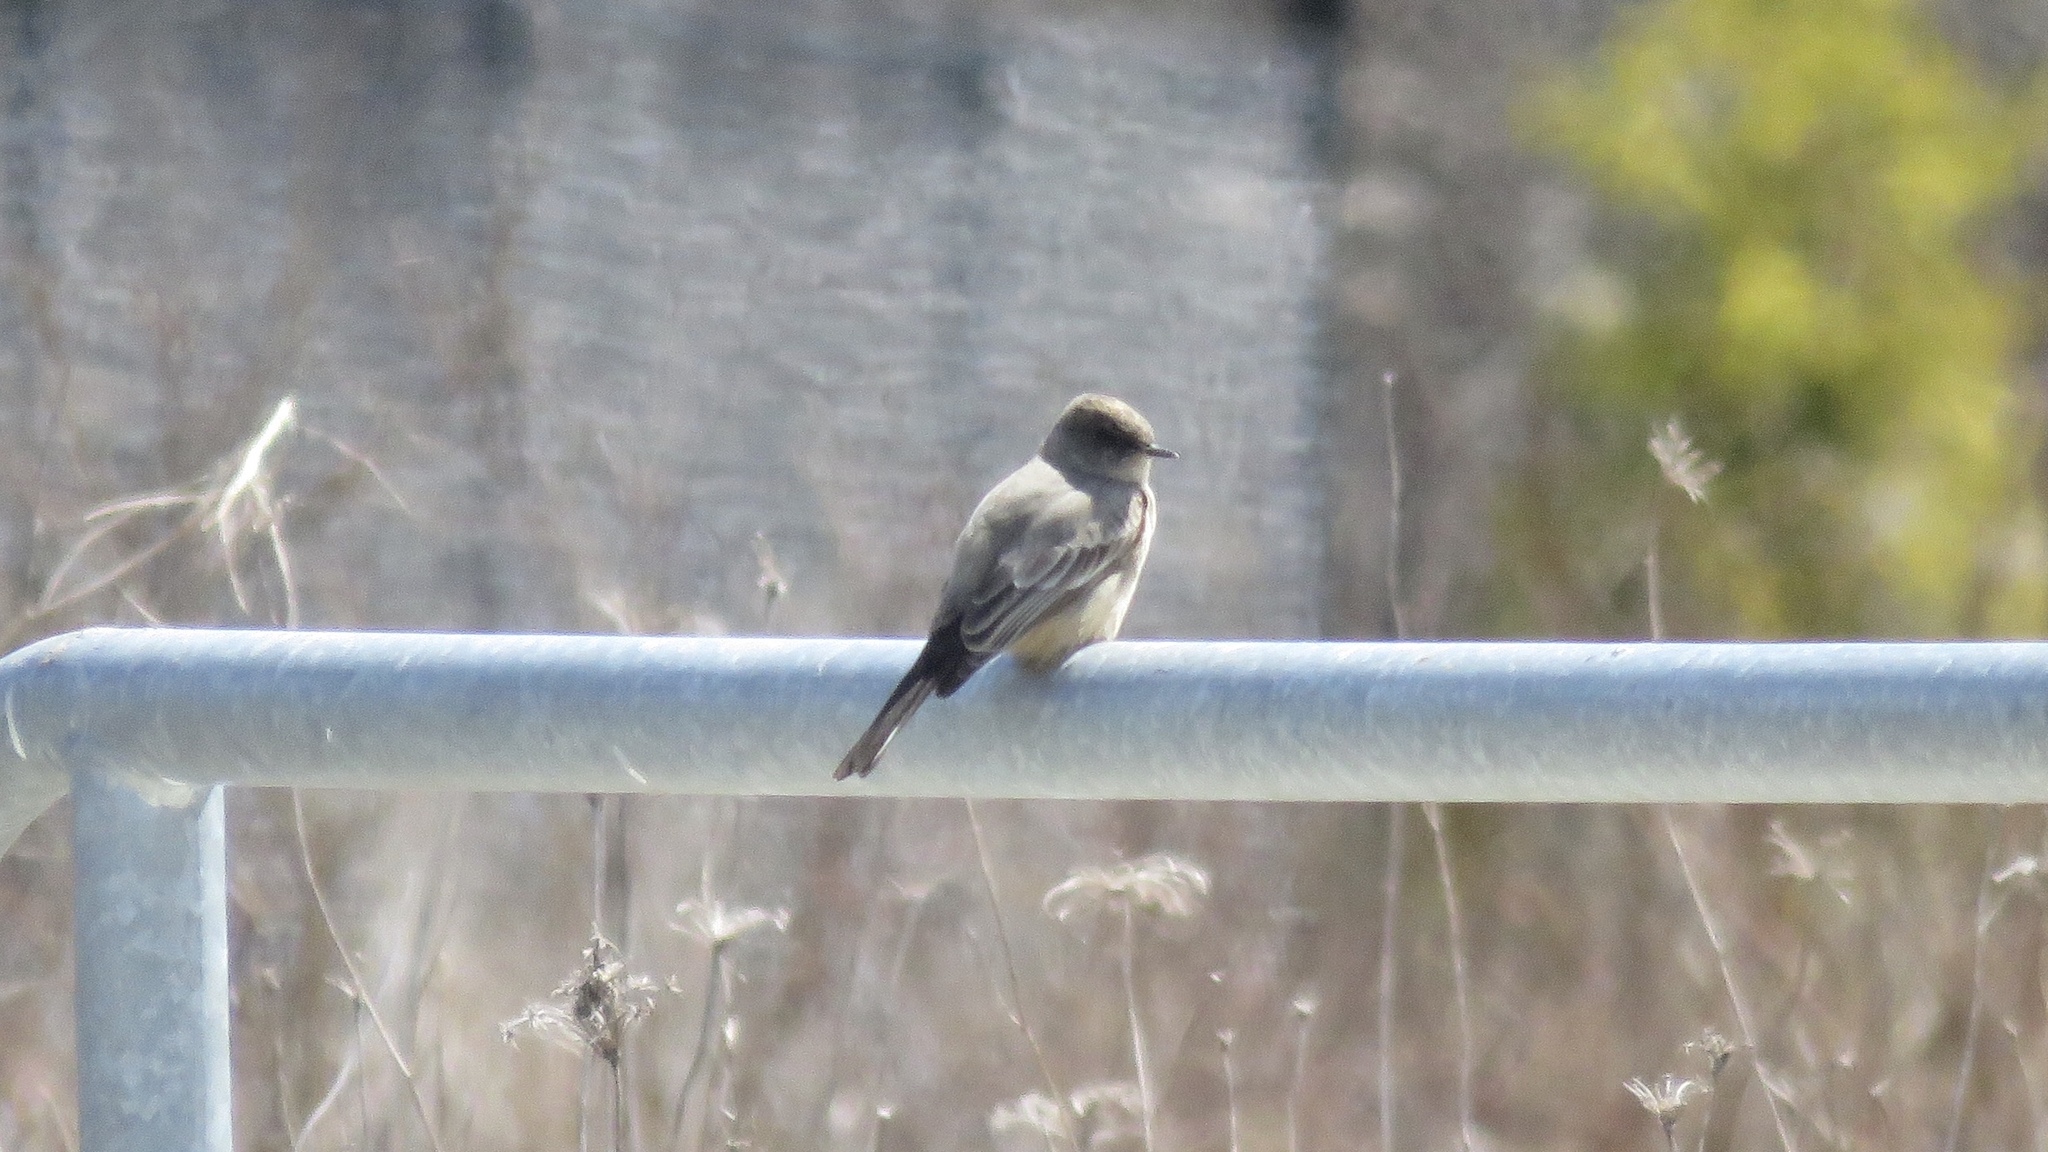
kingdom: Animalia
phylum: Chordata
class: Aves
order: Passeriformes
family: Tyrannidae
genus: Sayornis
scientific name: Sayornis saya
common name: Say's phoebe
